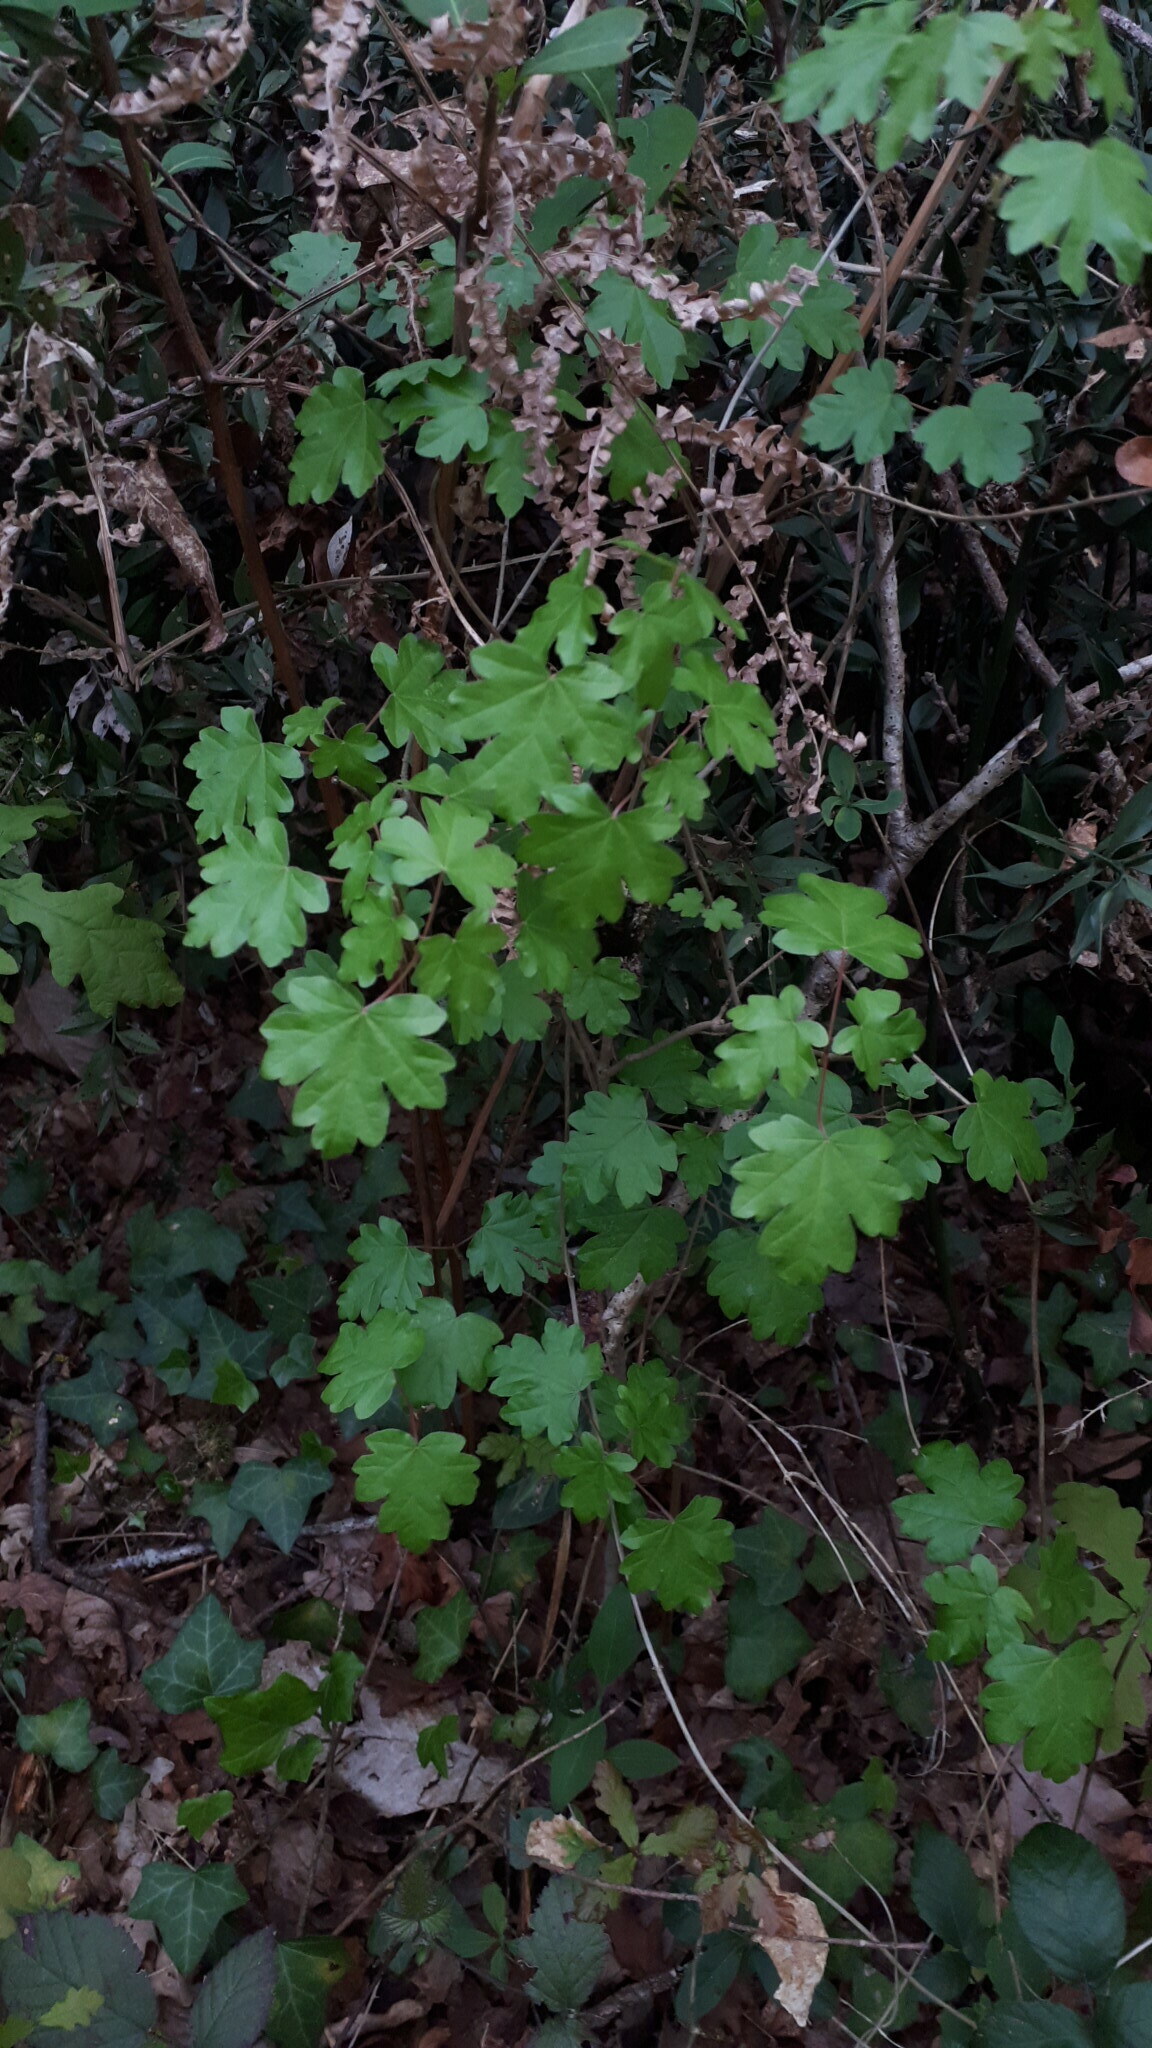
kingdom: Plantae
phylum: Tracheophyta
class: Magnoliopsida
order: Sapindales
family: Sapindaceae
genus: Acer
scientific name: Acer campestre
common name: Field maple
